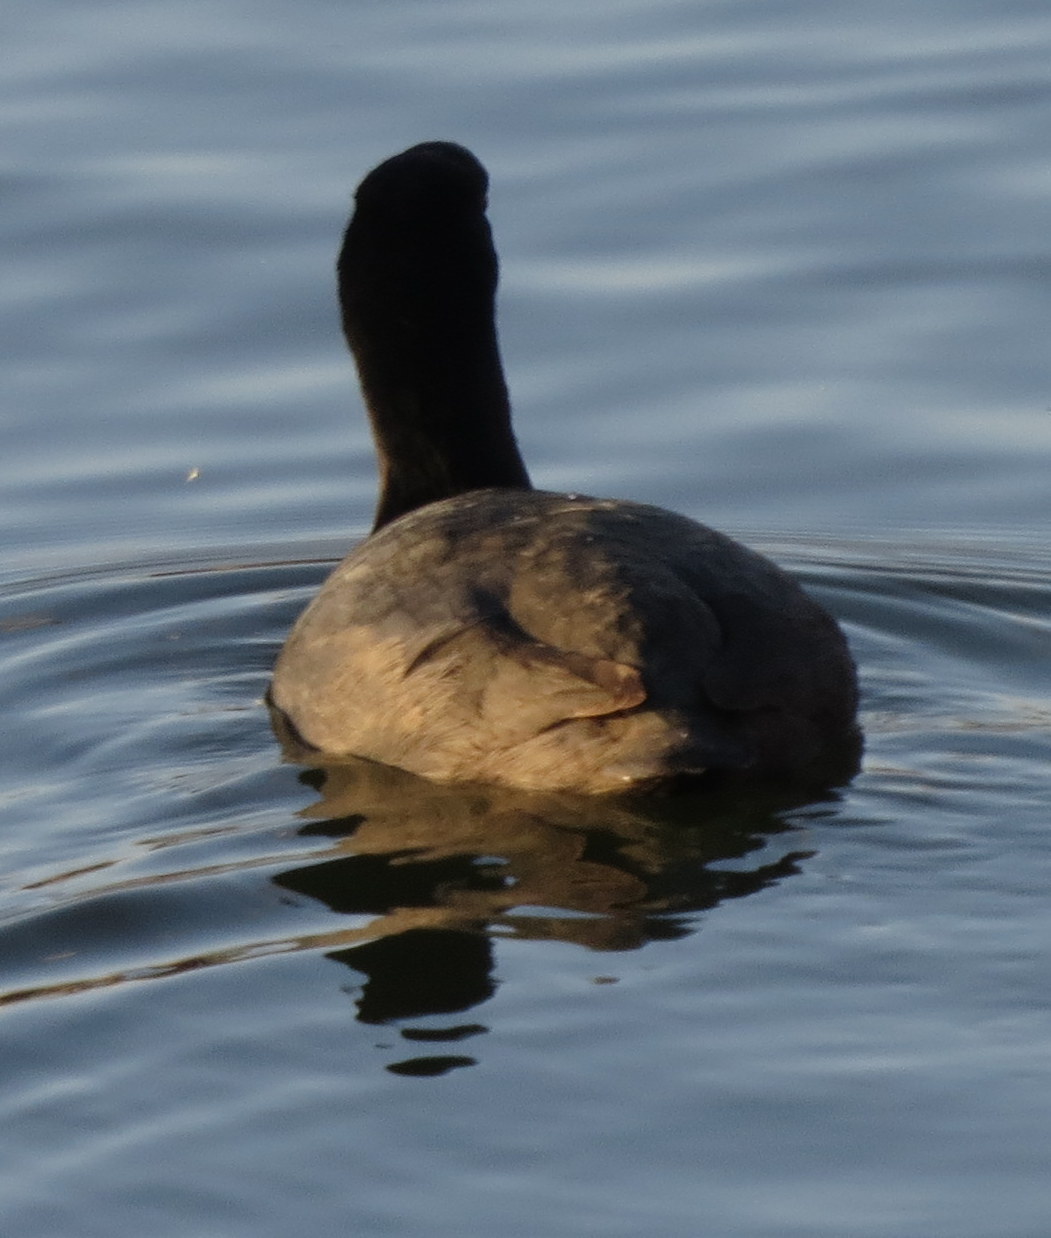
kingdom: Animalia
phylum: Chordata
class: Aves
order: Gruiformes
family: Rallidae
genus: Fulica
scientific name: Fulica americana
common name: American coot
